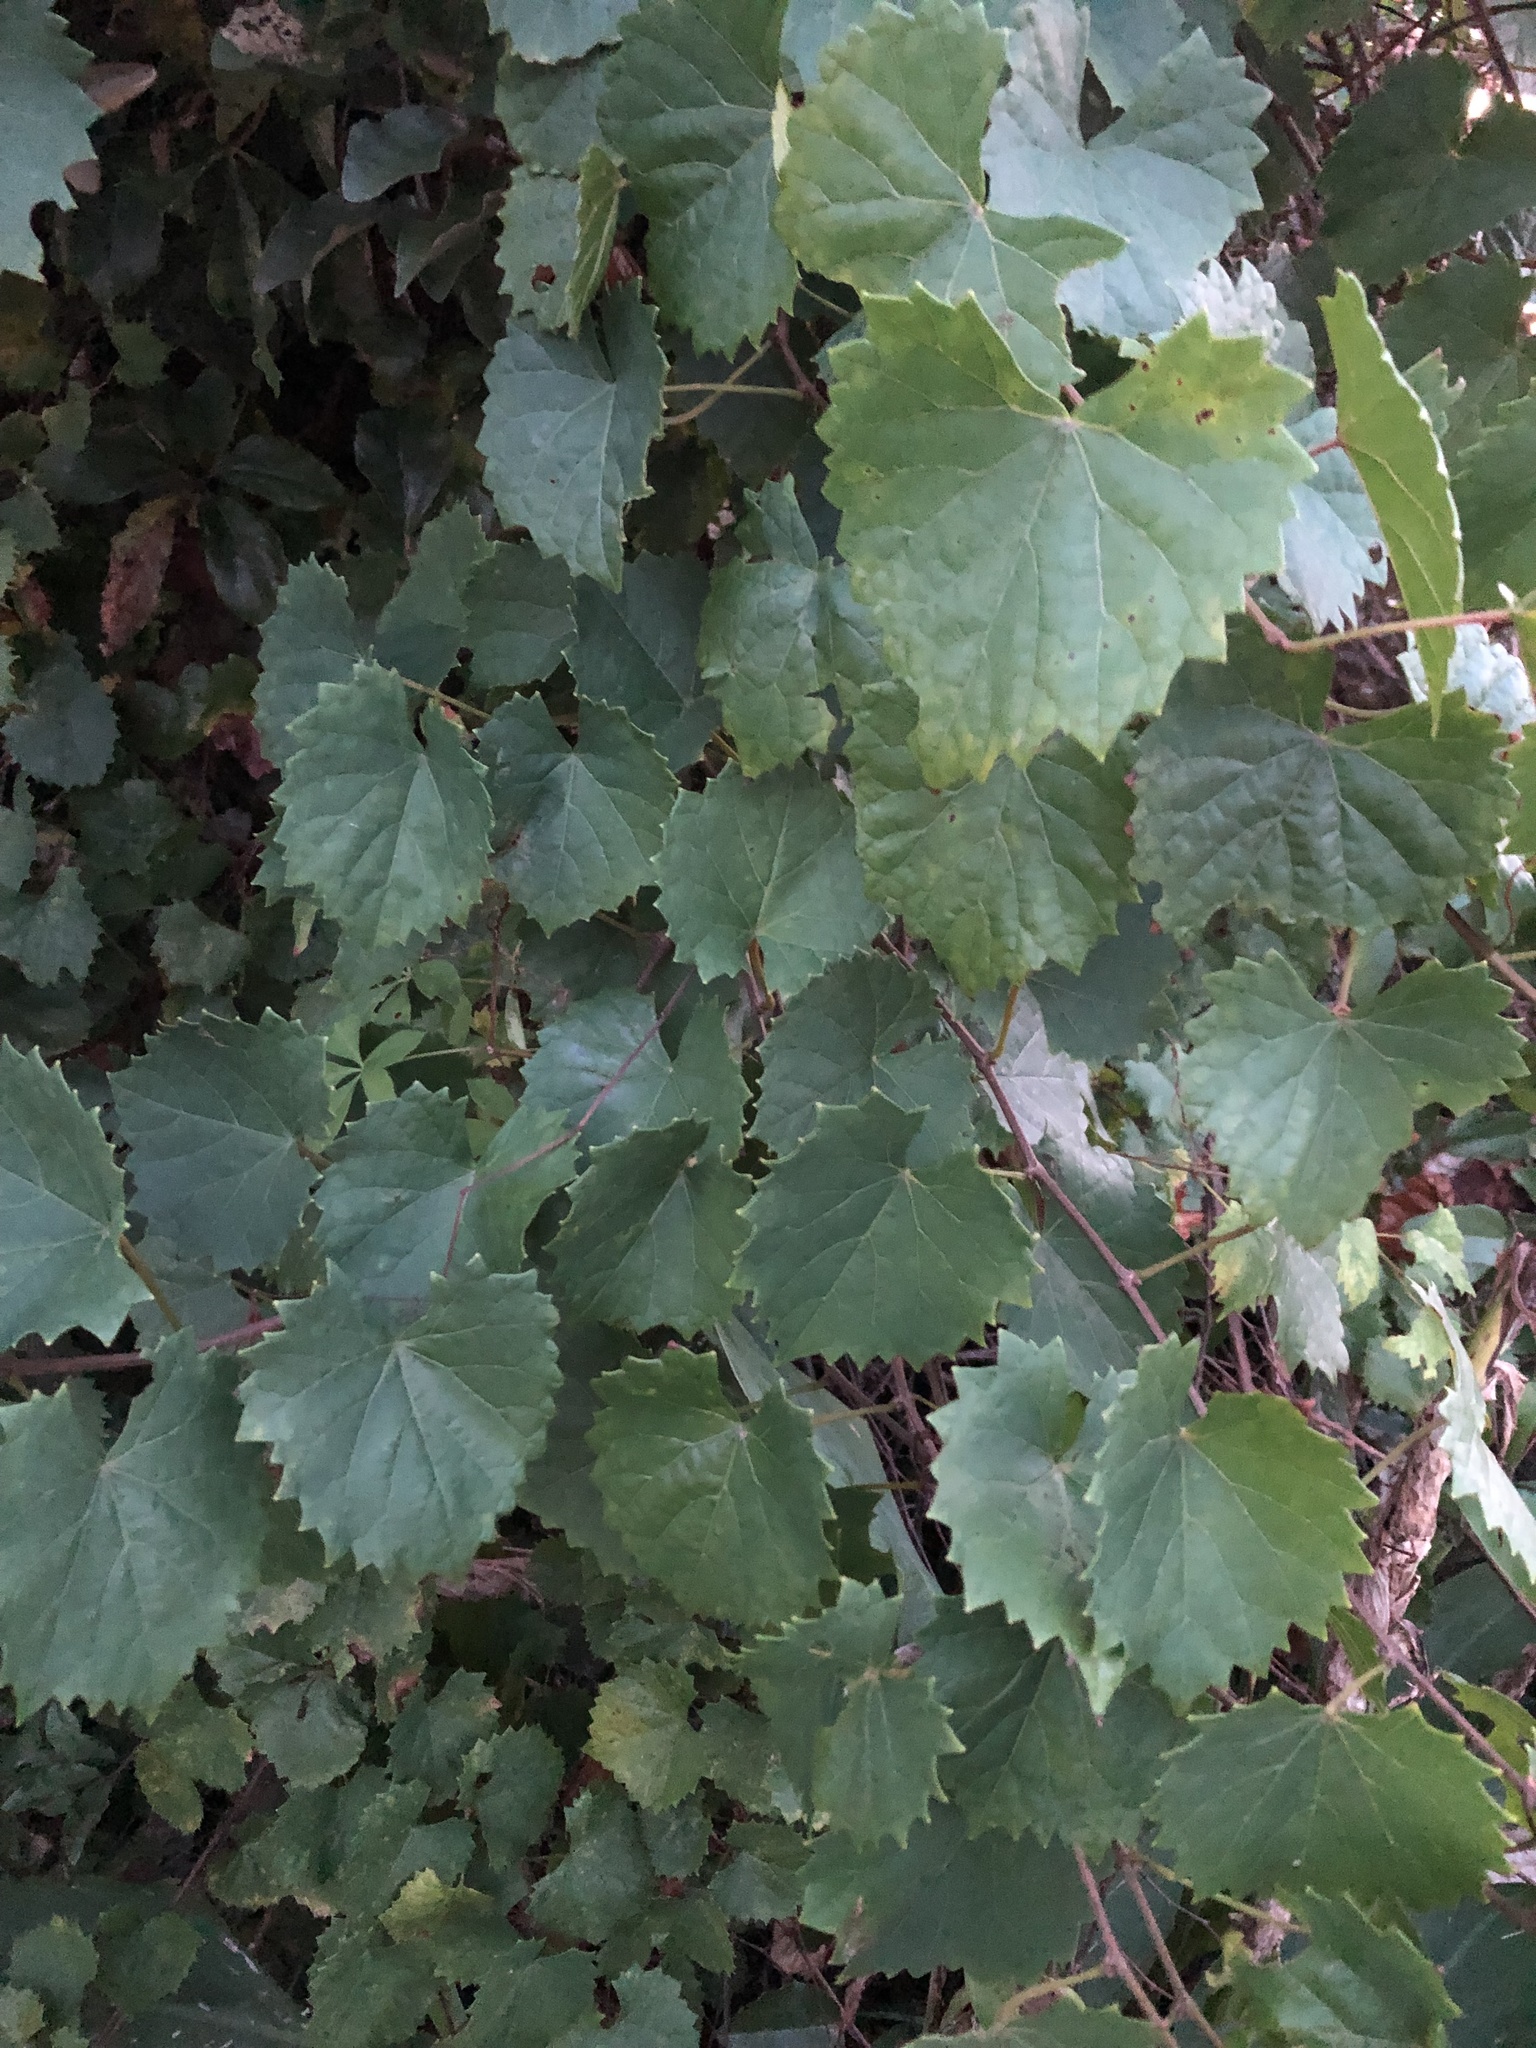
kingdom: Plantae
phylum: Tracheophyta
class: Magnoliopsida
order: Vitales
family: Vitaceae
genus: Vitis
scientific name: Vitis rotundifolia
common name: Muscadine grape
